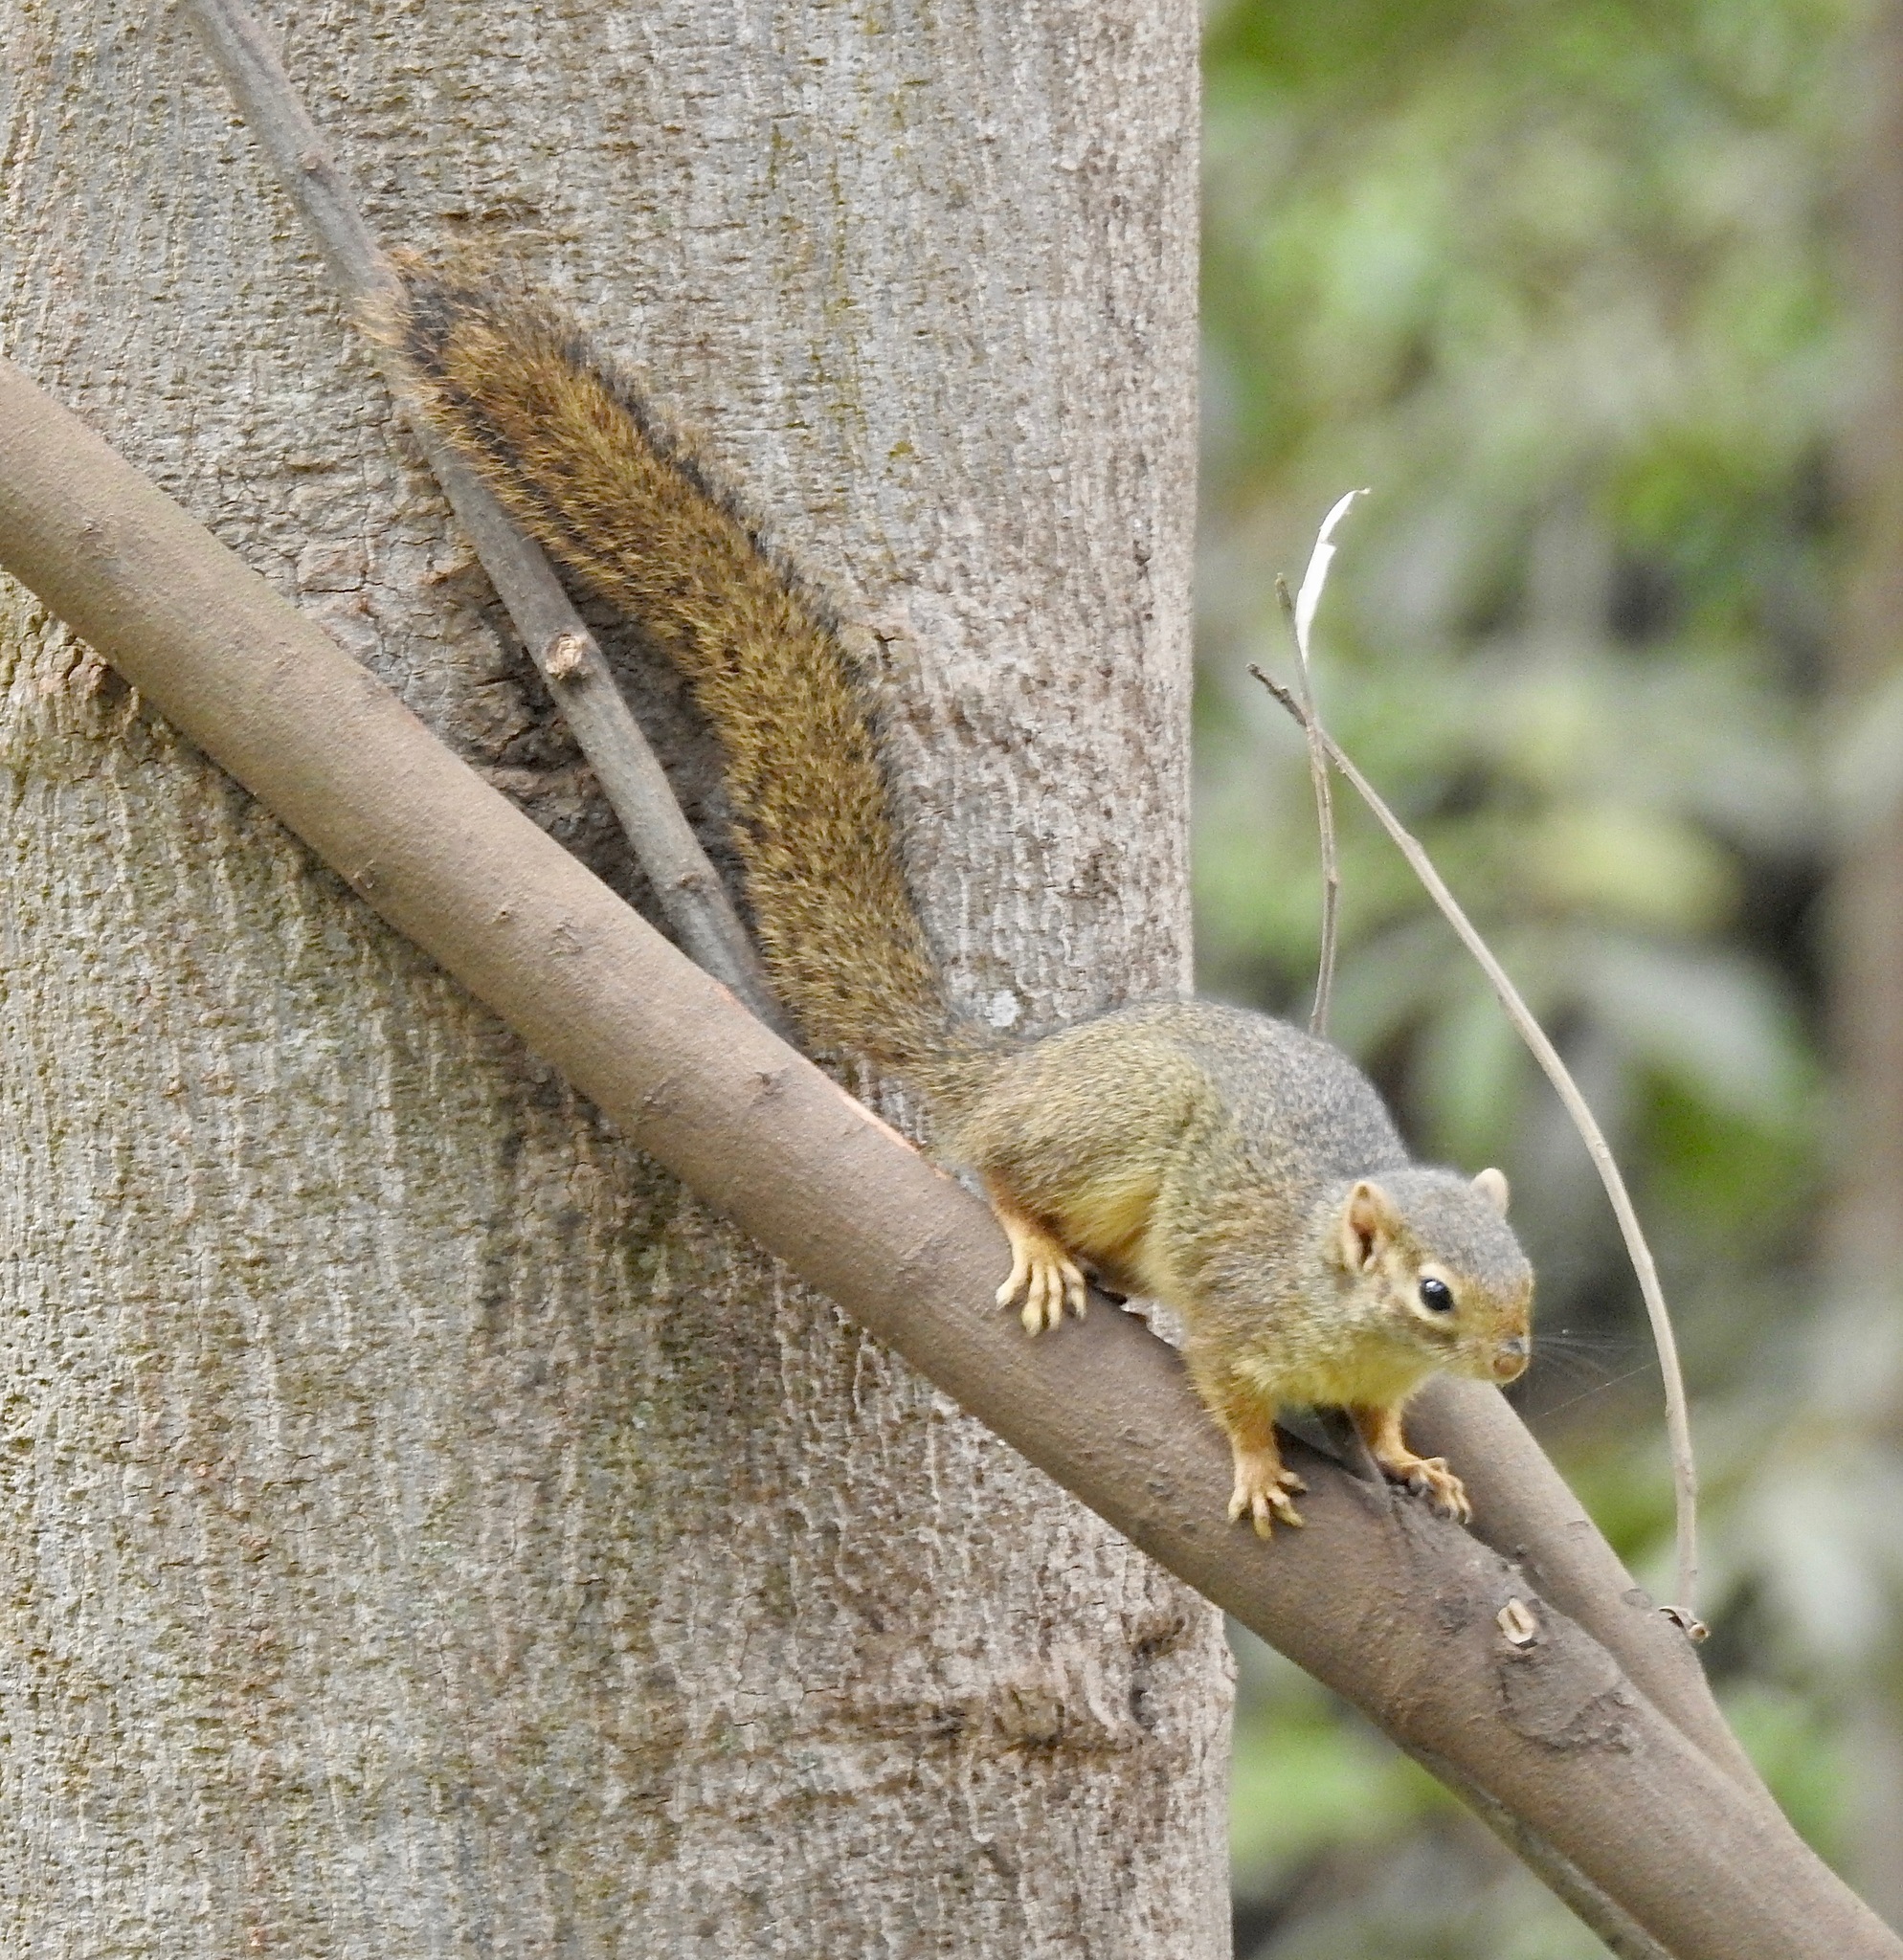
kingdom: Animalia
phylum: Chordata
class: Mammalia
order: Rodentia
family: Sciuridae
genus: Paraxerus
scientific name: Paraxerus ochraceus
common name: Ochre bush squirrel
